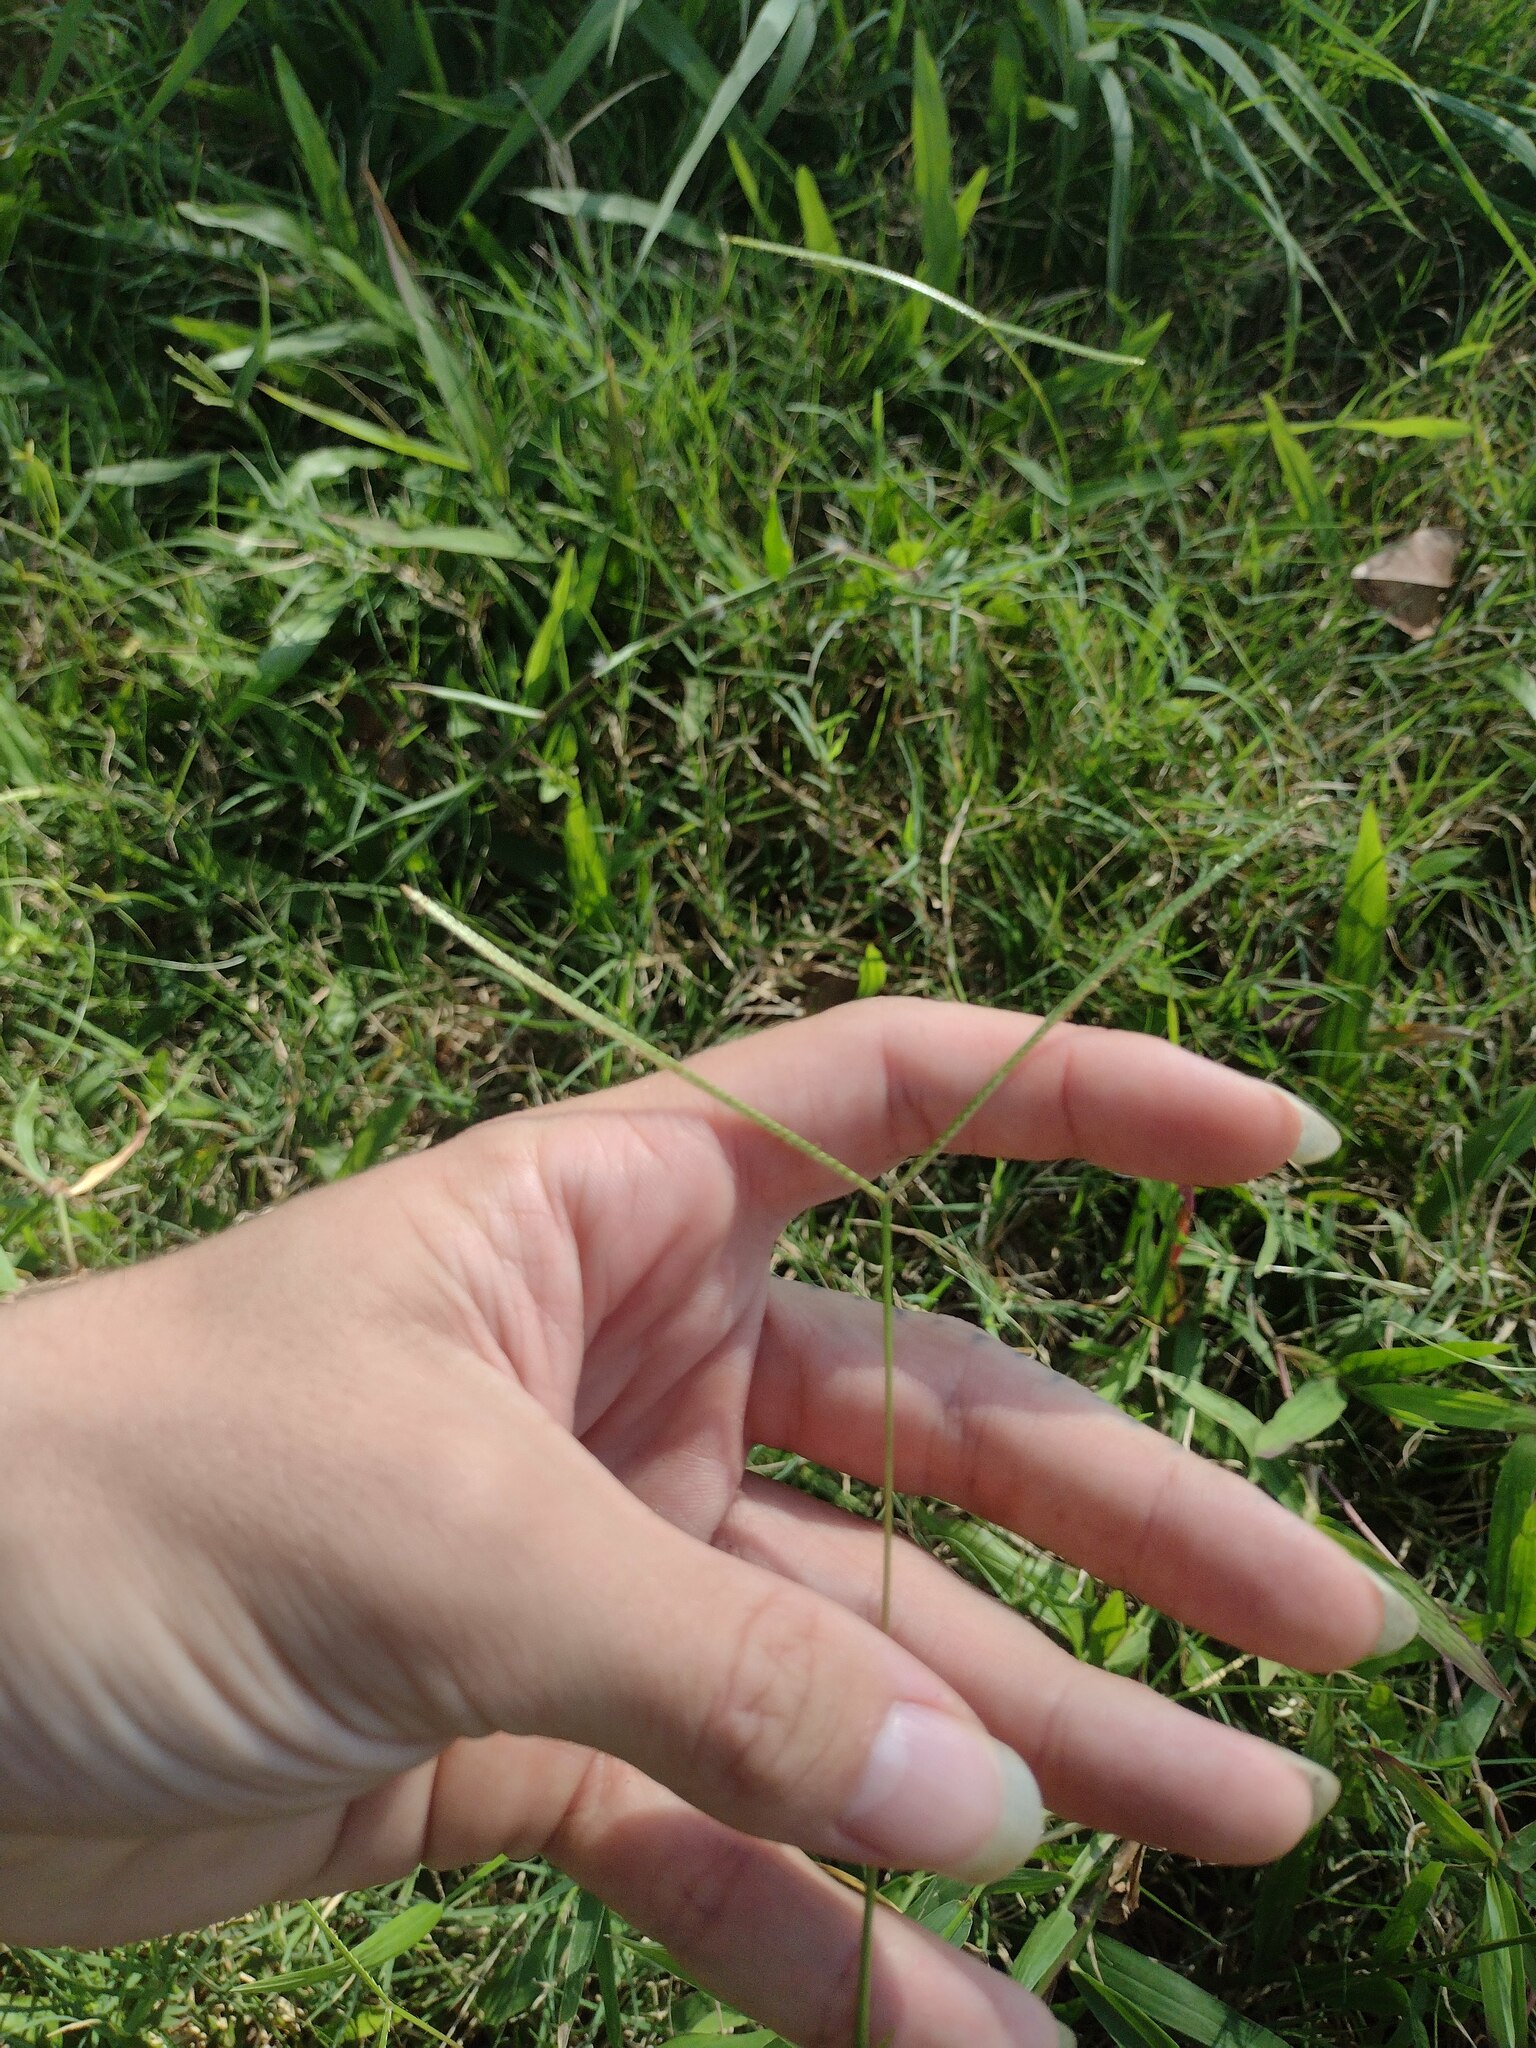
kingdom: Plantae
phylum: Tracheophyta
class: Liliopsida
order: Poales
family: Poaceae
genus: Paspalum
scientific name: Paspalum conjugatum
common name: Hilograss
